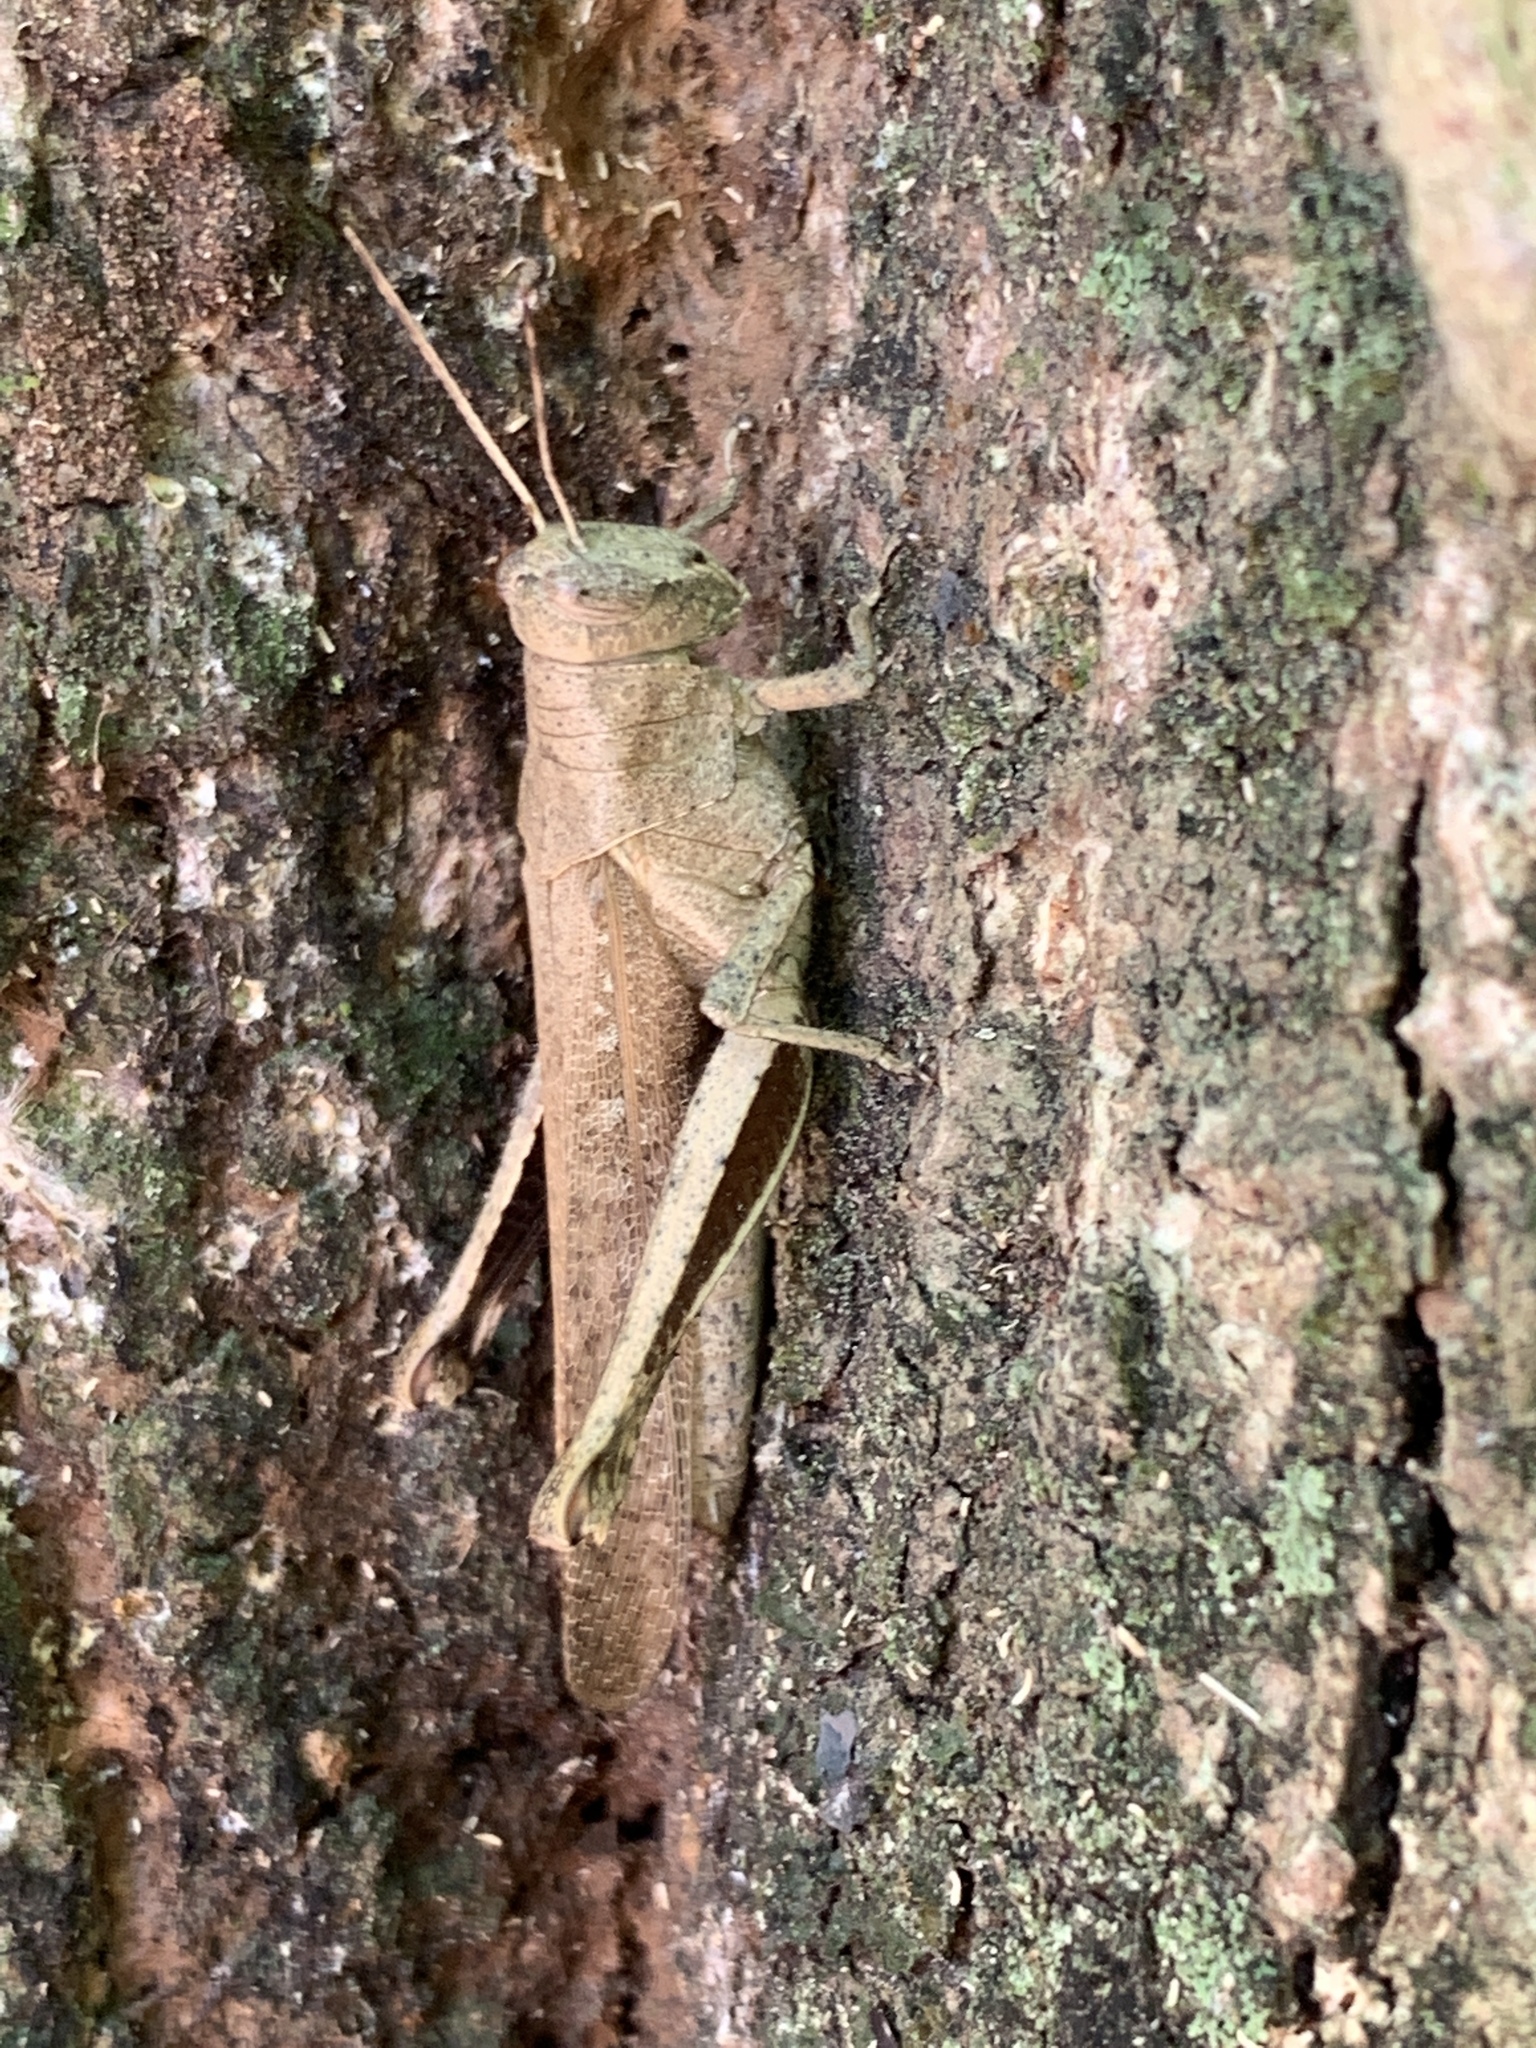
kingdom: Animalia
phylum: Arthropoda
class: Insecta
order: Orthoptera
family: Acrididae
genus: Abracris
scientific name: Abracris flavolineata
